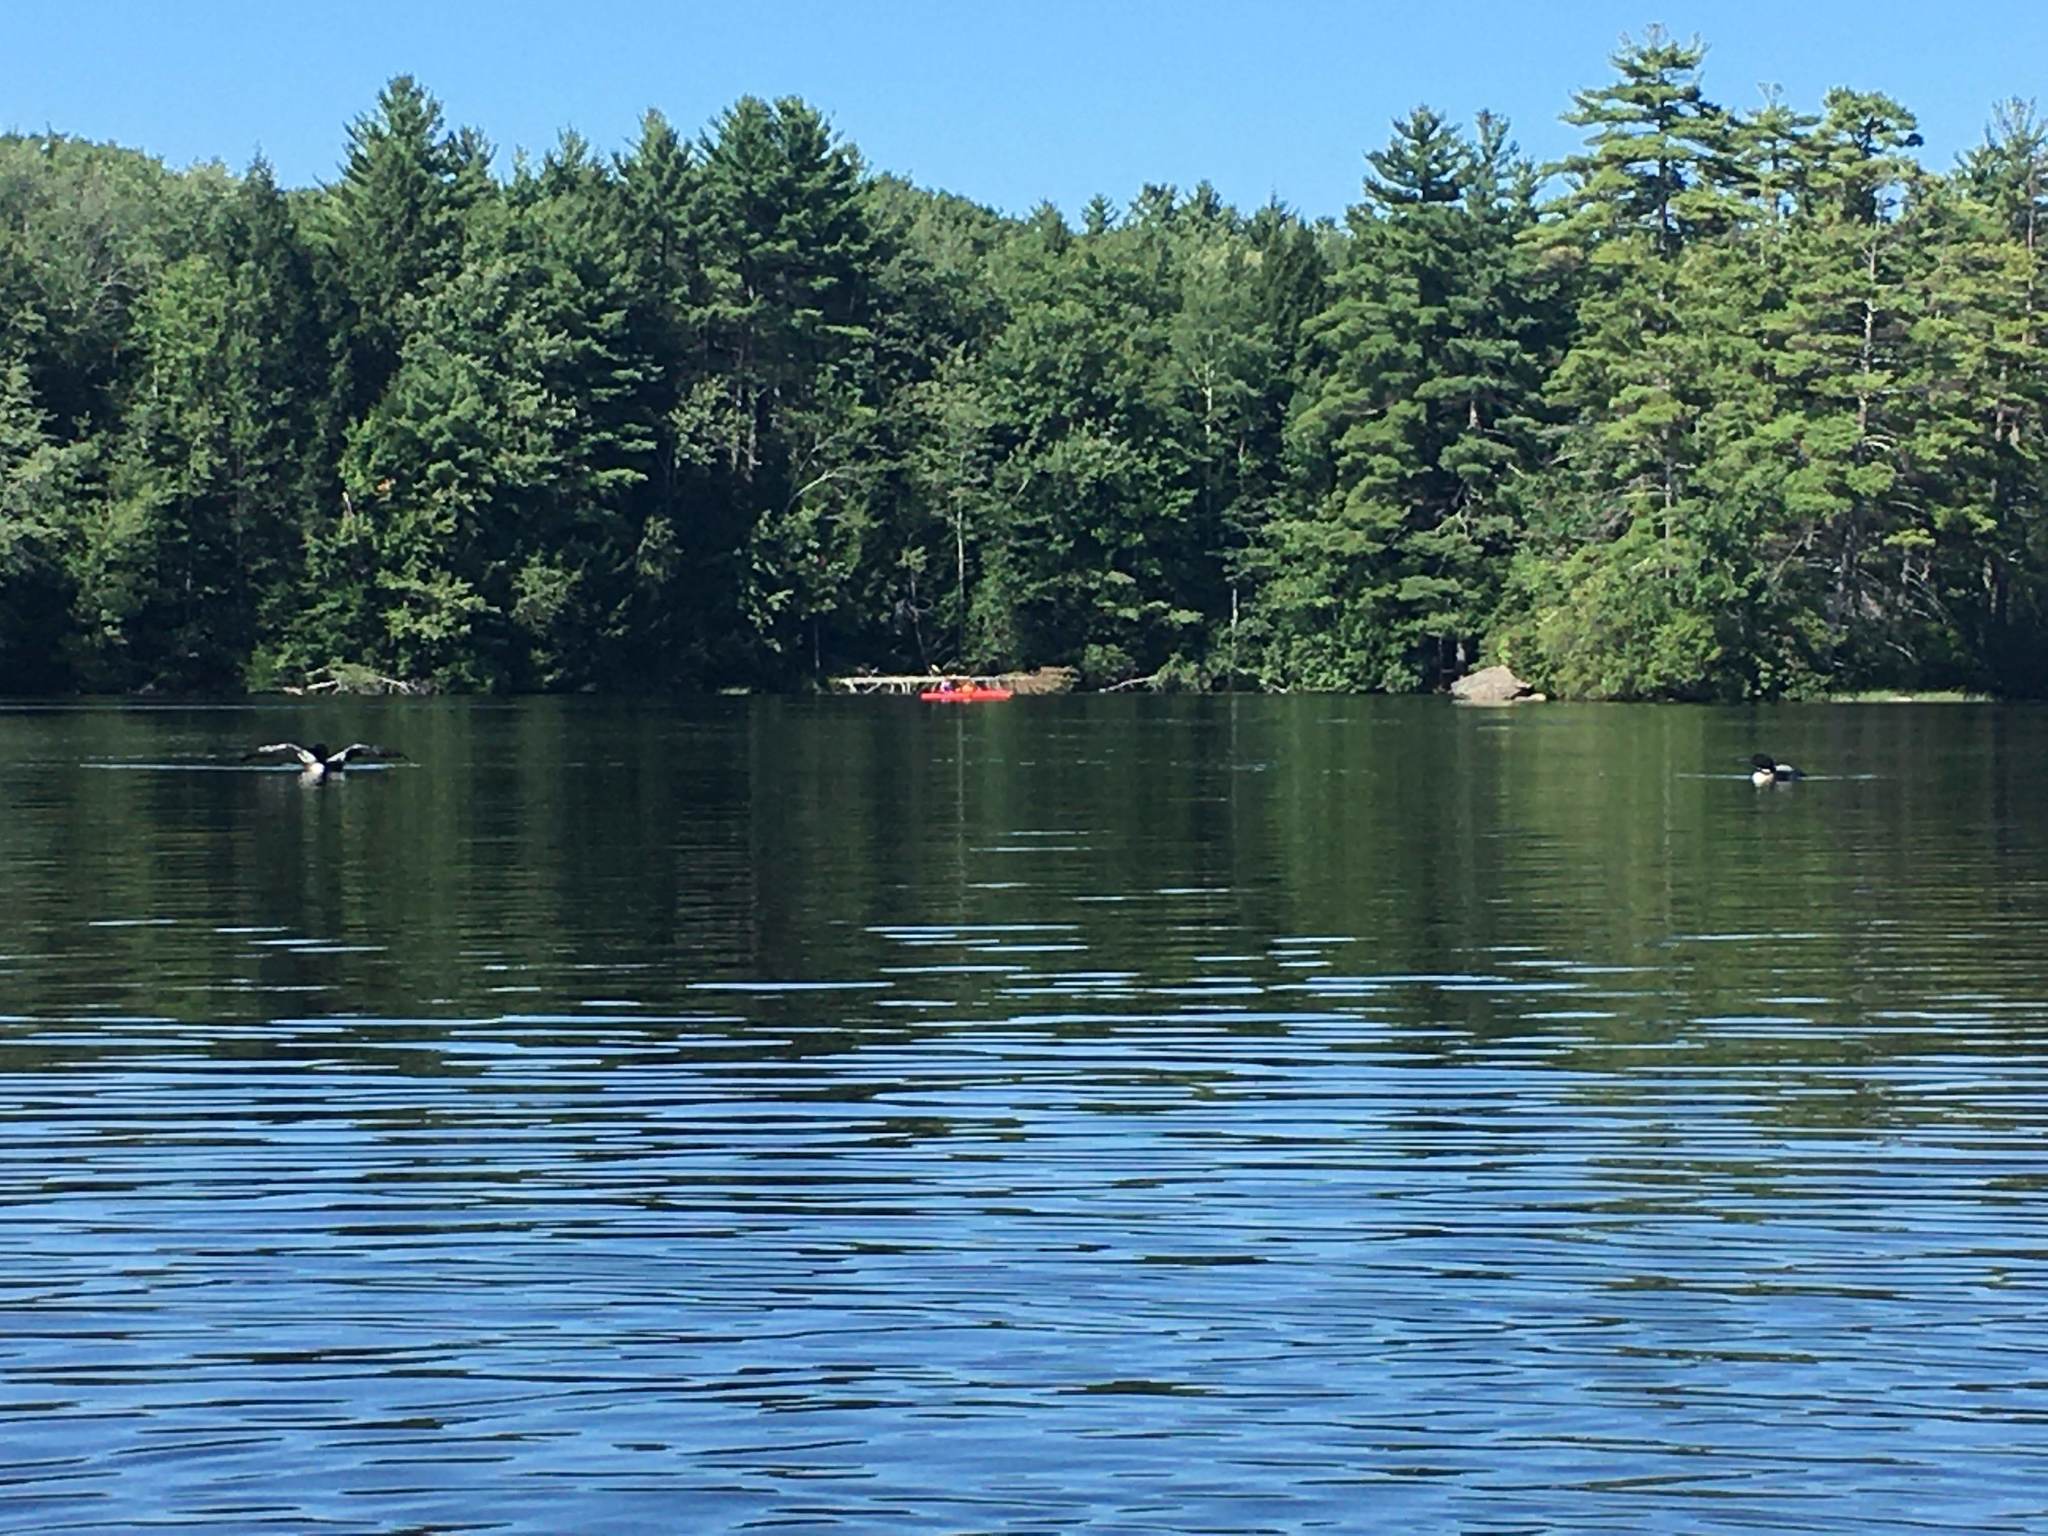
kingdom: Animalia
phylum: Chordata
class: Aves
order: Gaviiformes
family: Gaviidae
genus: Gavia
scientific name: Gavia immer
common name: Common loon
